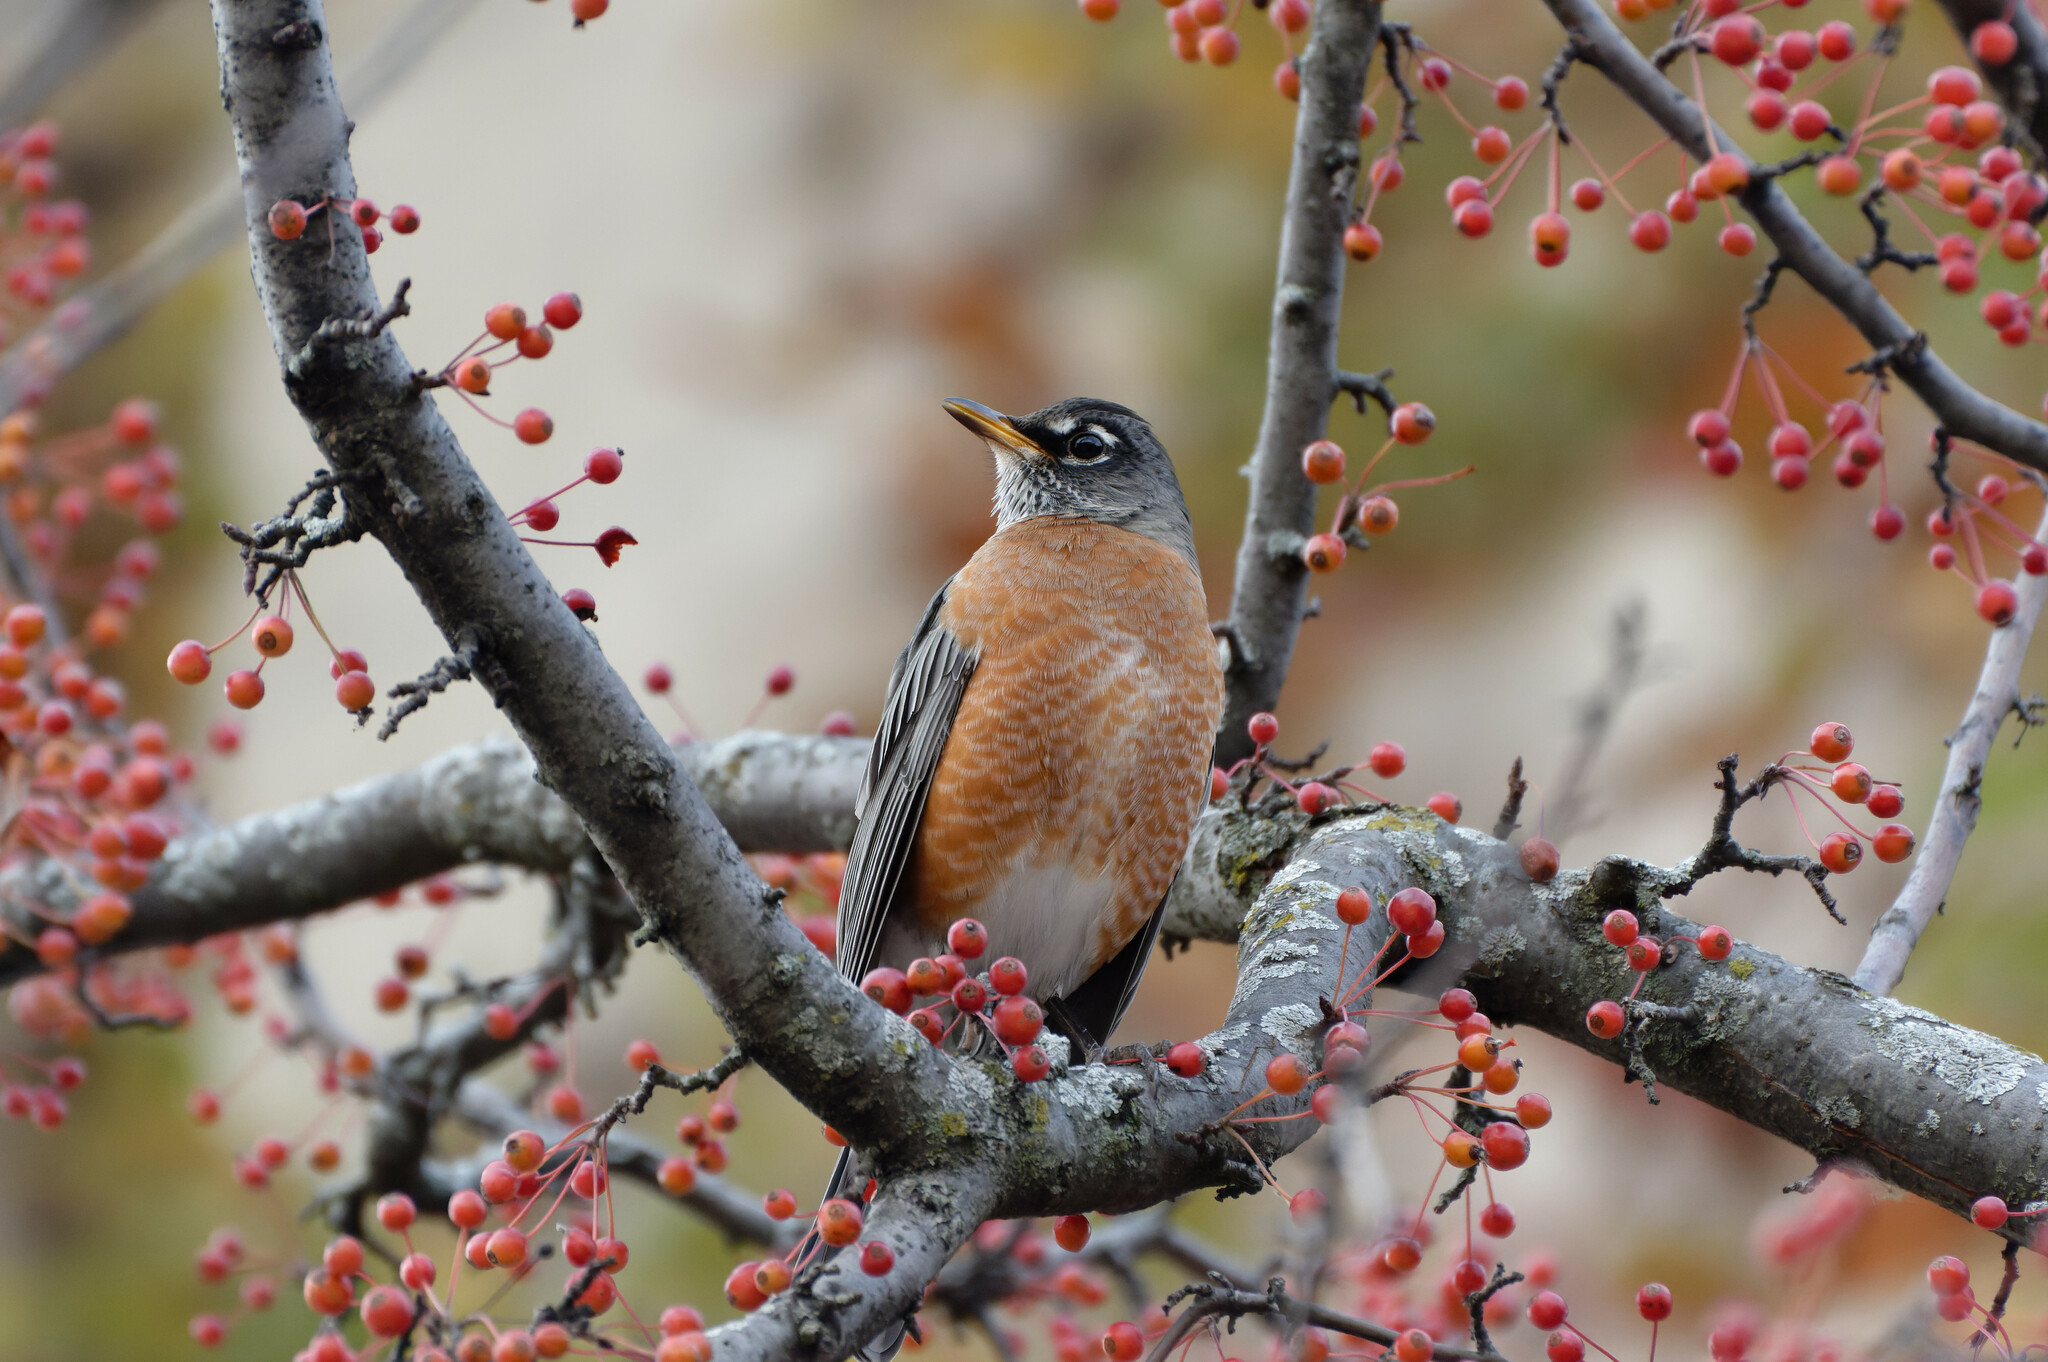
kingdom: Animalia
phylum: Chordata
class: Aves
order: Passeriformes
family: Turdidae
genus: Turdus
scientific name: Turdus migratorius
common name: American robin
